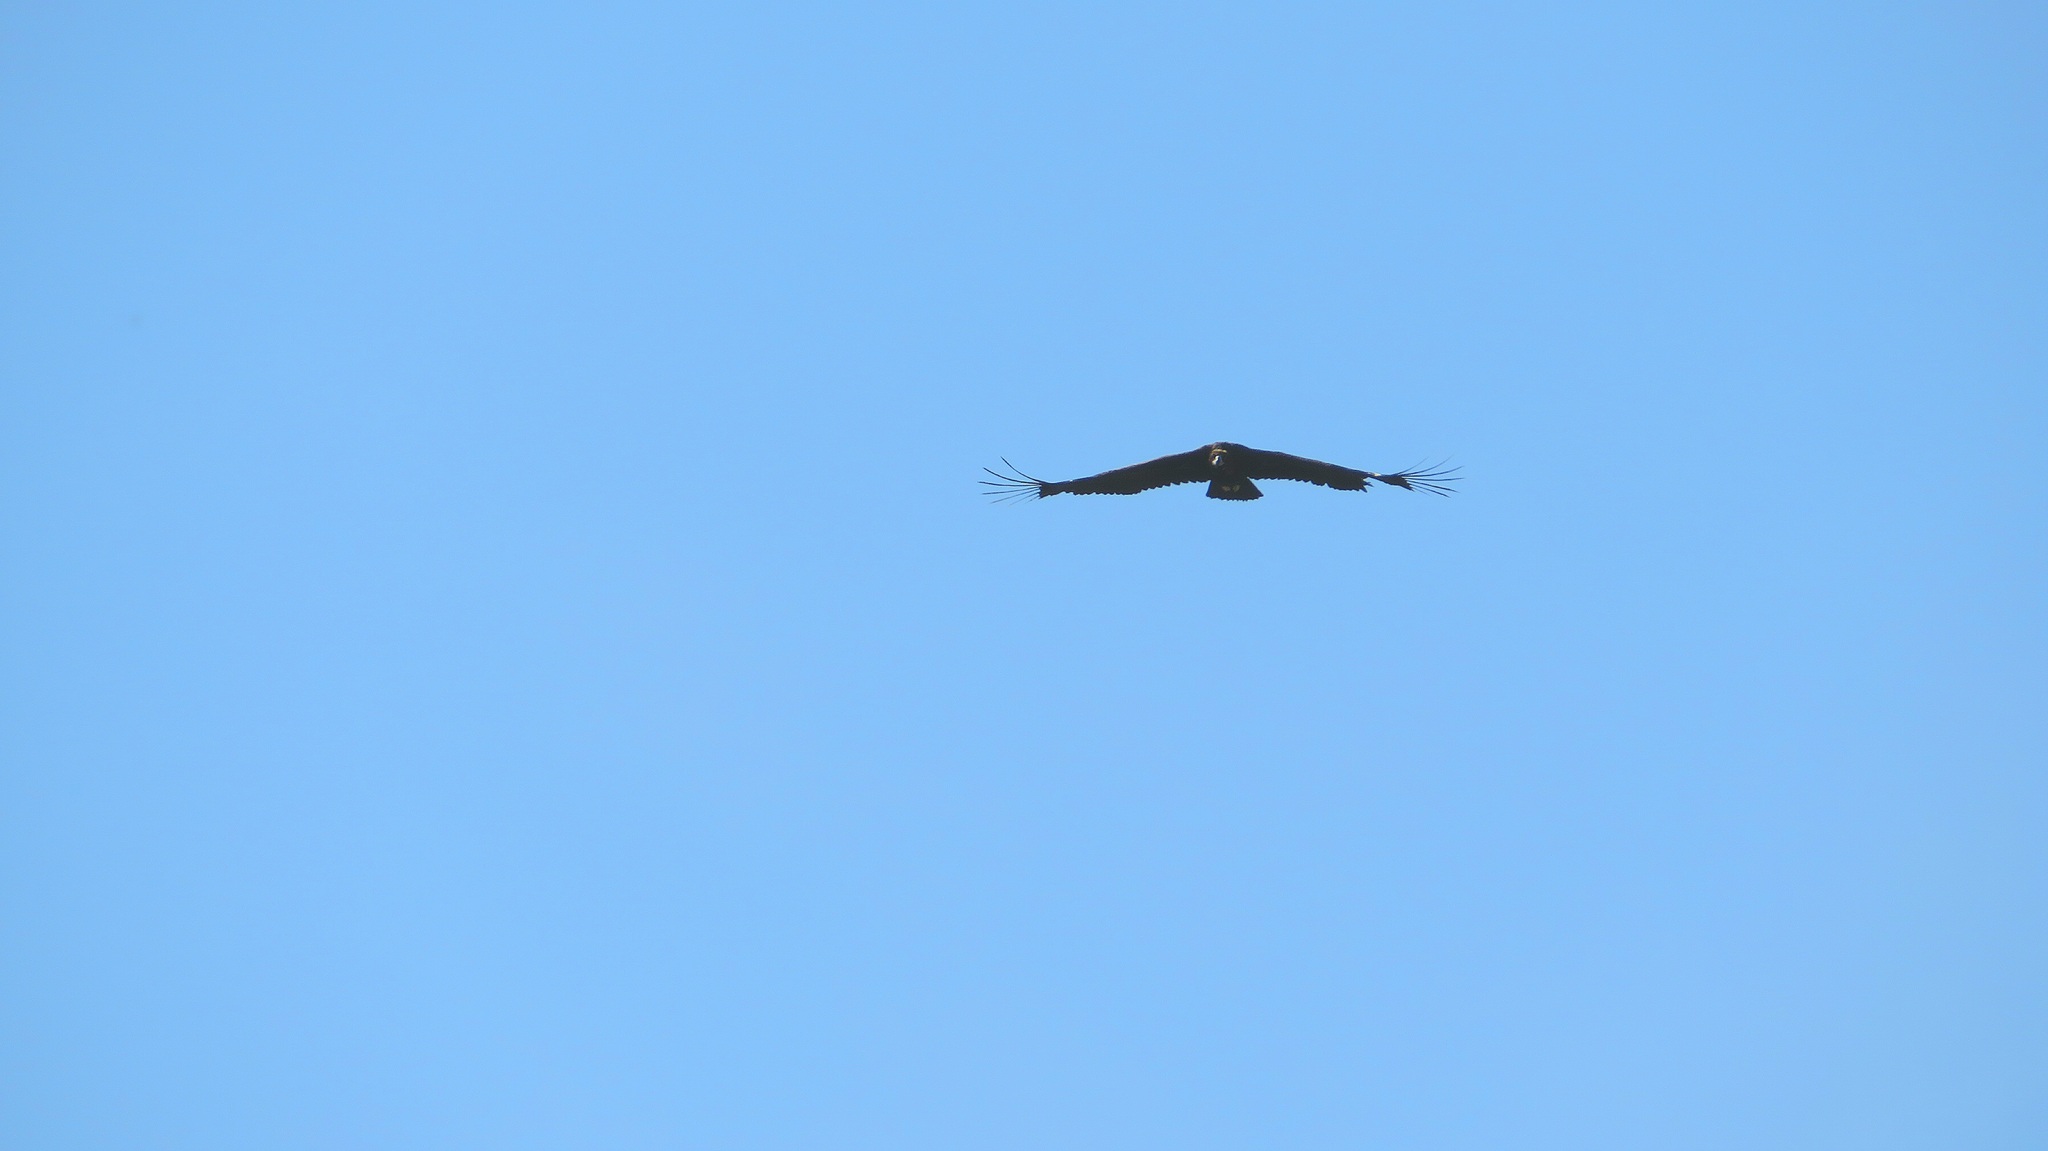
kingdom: Animalia
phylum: Chordata
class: Aves
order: Accipitriformes
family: Accipitridae
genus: Aegypius
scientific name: Aegypius monachus
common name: Cinereous vulture
